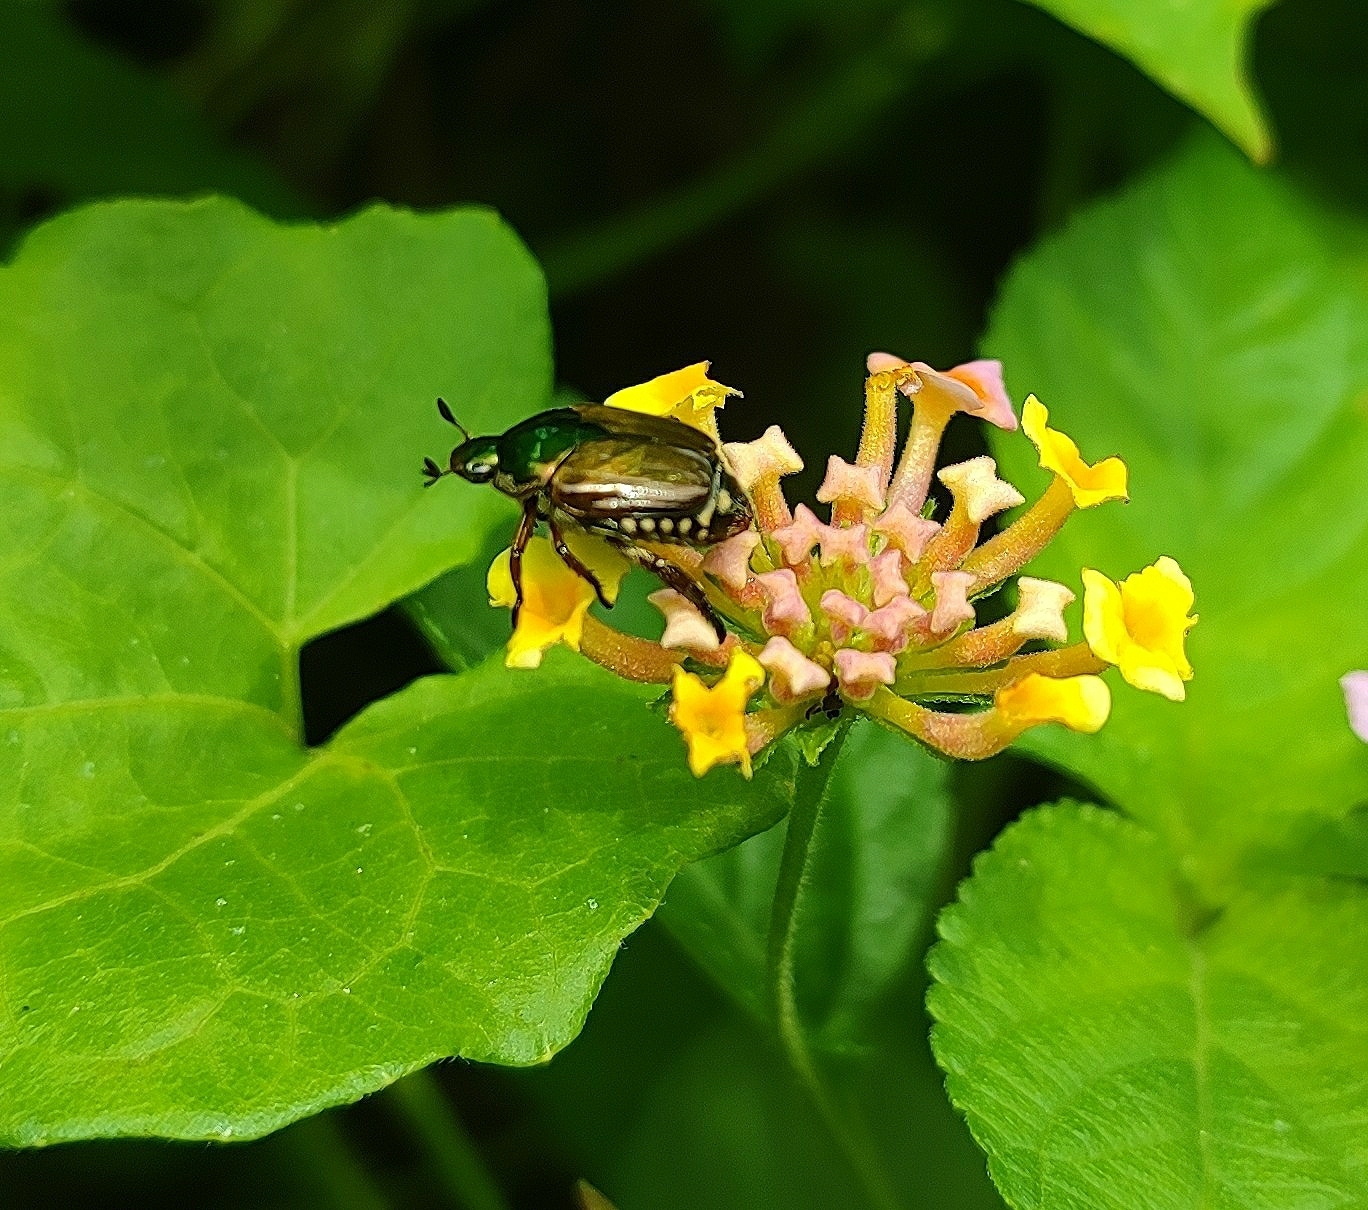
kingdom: Animalia
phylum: Arthropoda
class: Insecta
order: Coleoptera
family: Scarabaeidae
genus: Popillia
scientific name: Popillia complanata
